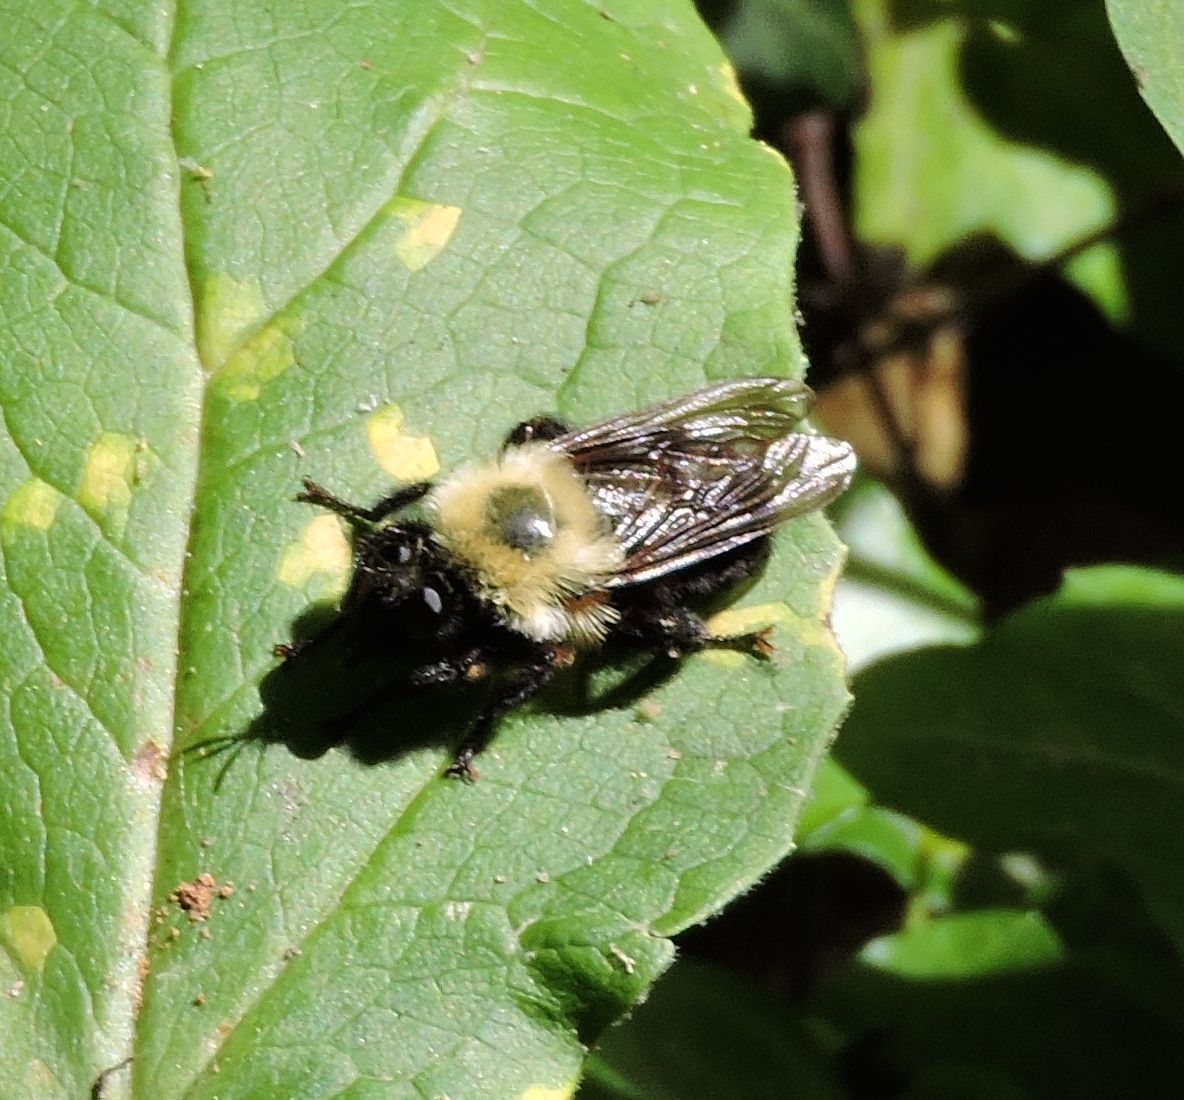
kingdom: Animalia
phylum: Arthropoda
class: Insecta
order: Diptera
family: Asilidae
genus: Laphria
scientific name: Laphria thoracica
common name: Bumble bee mimic robber fly
